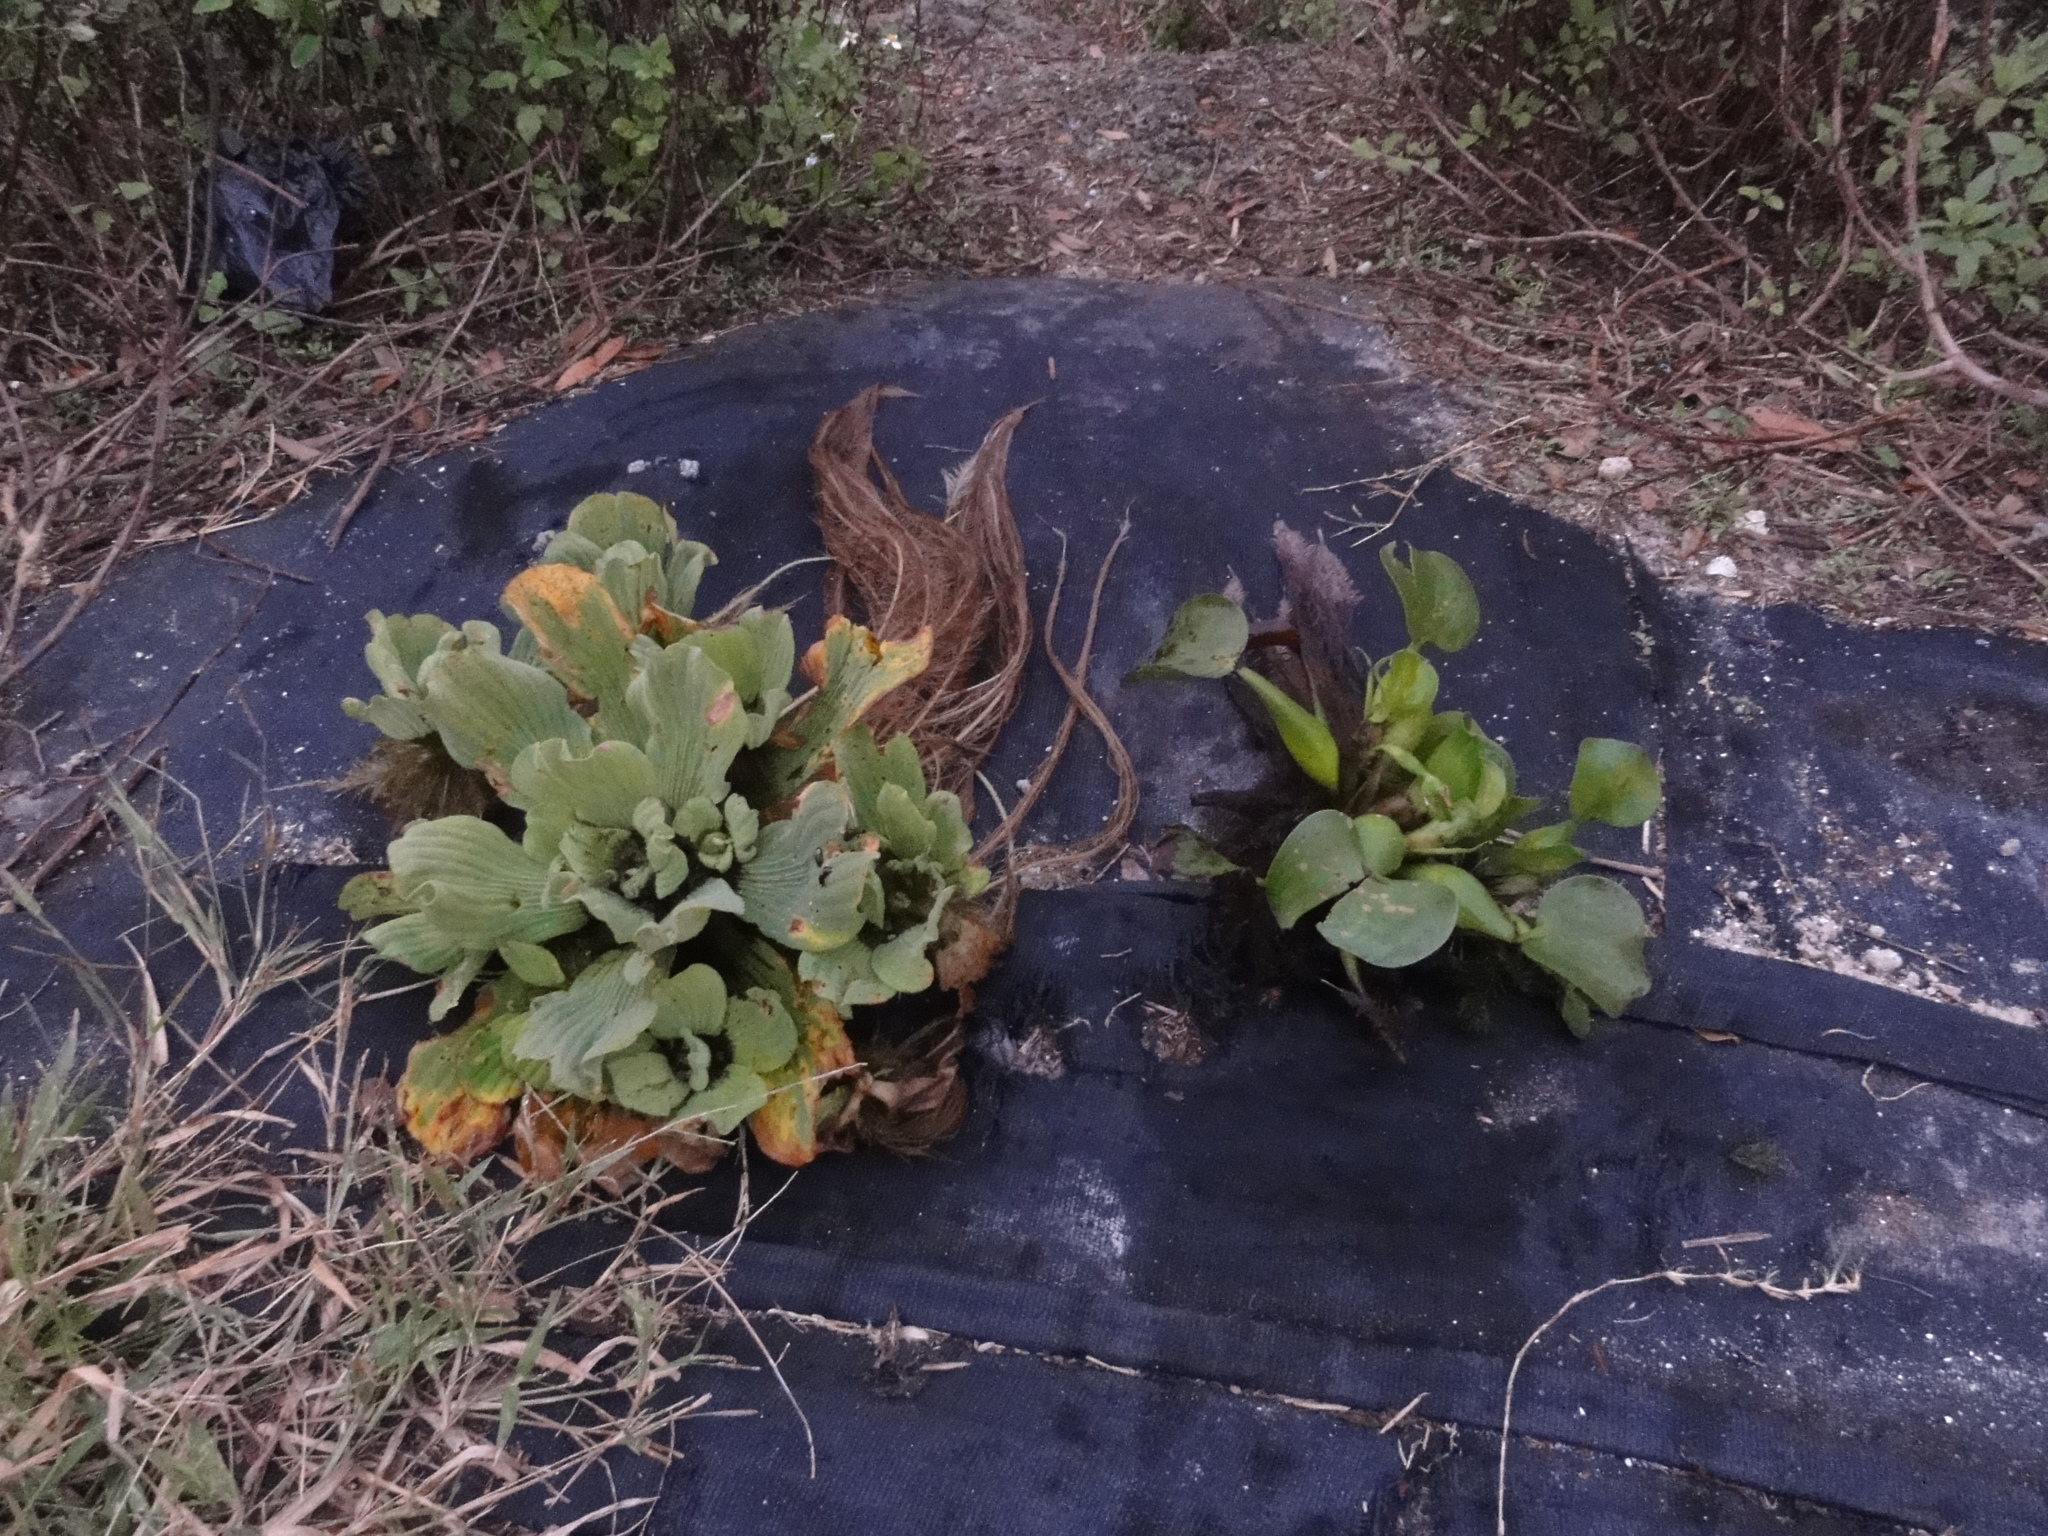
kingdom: Plantae
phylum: Tracheophyta
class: Liliopsida
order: Alismatales
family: Araceae
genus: Pistia
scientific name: Pistia stratiotes
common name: Water lettuce
